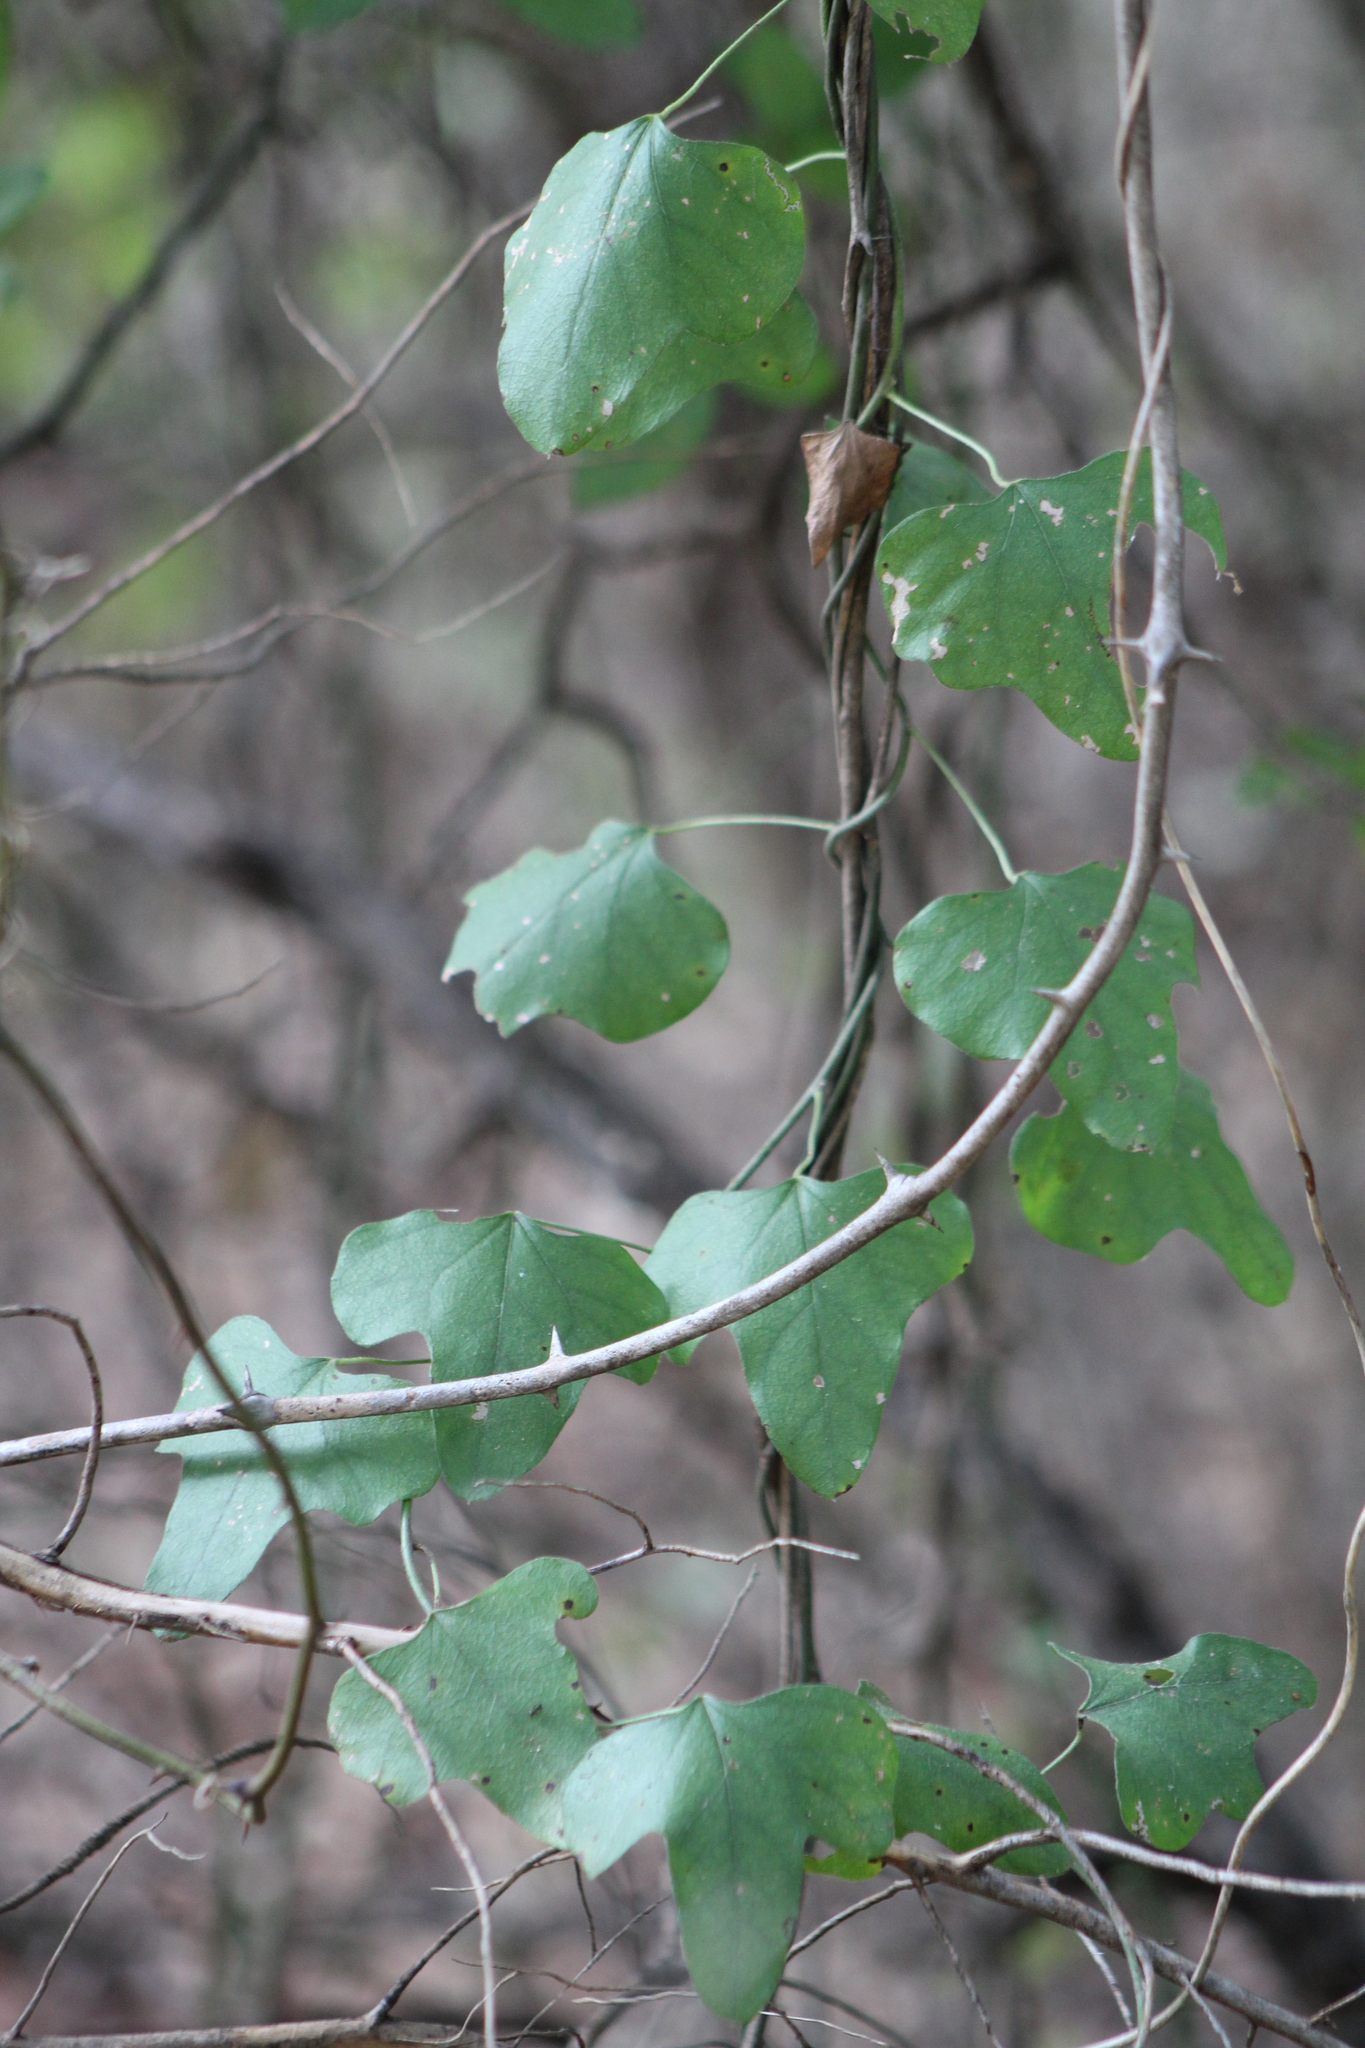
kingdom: Plantae
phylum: Tracheophyta
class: Magnoliopsida
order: Ranunculales
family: Menispermaceae
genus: Cocculus
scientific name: Cocculus carolinus
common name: Carolina moonseed
